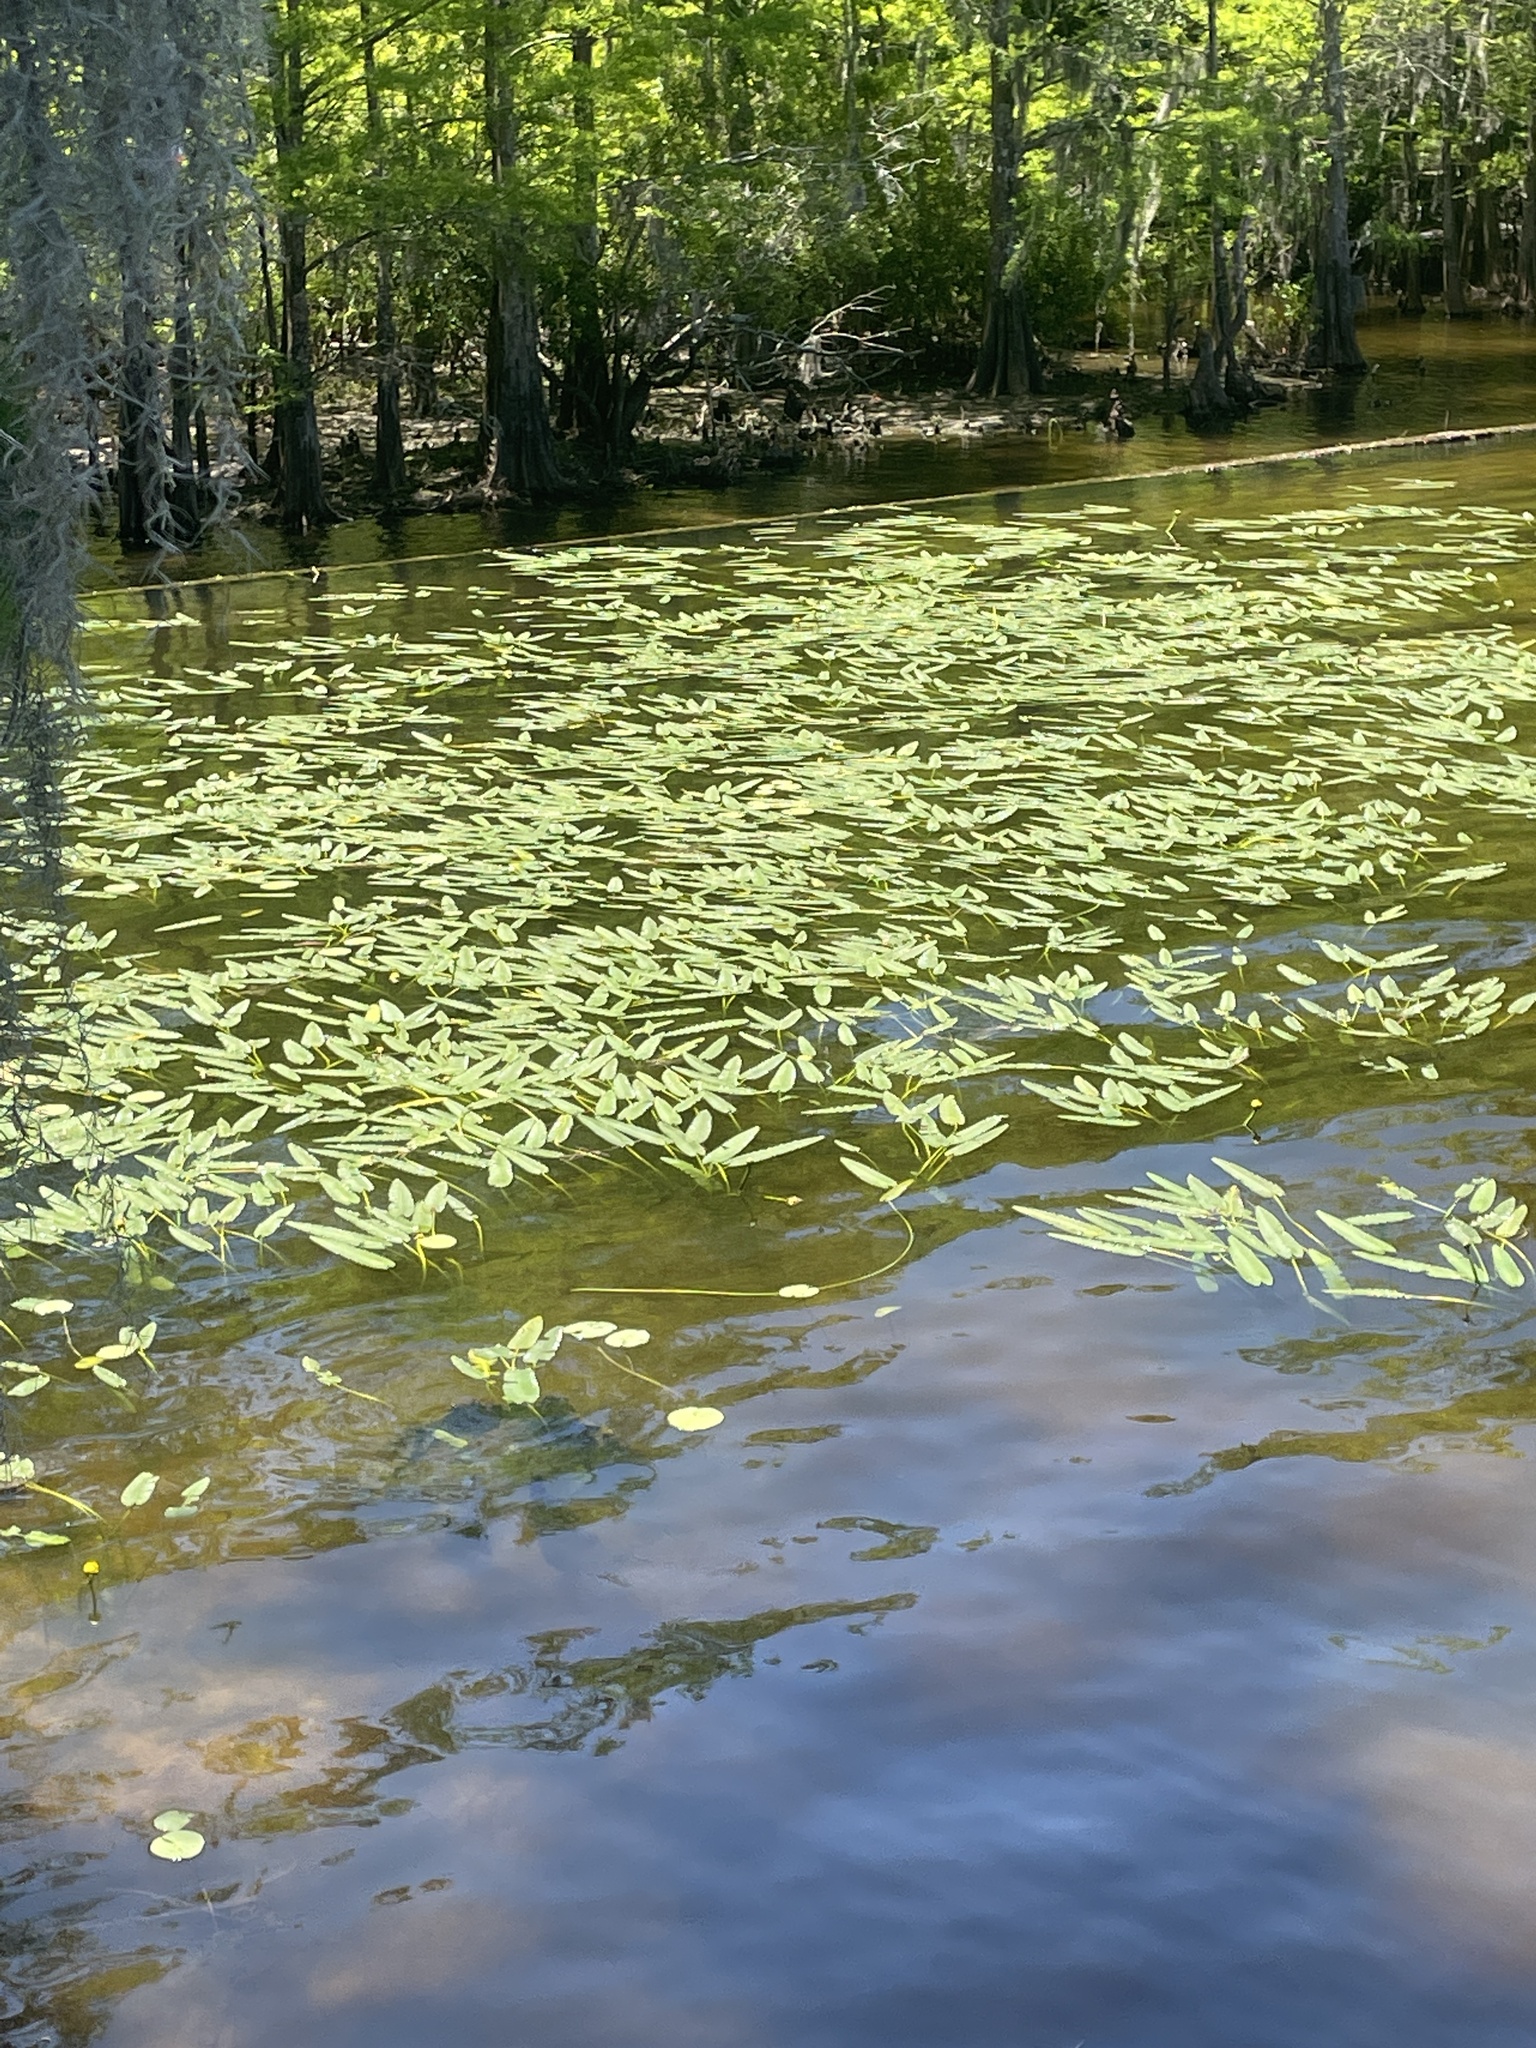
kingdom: Plantae
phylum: Tracheophyta
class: Magnoliopsida
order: Nymphaeales
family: Nymphaeaceae
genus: Nuphar
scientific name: Nuphar sagittifolia
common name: Cape fear spatterdock
